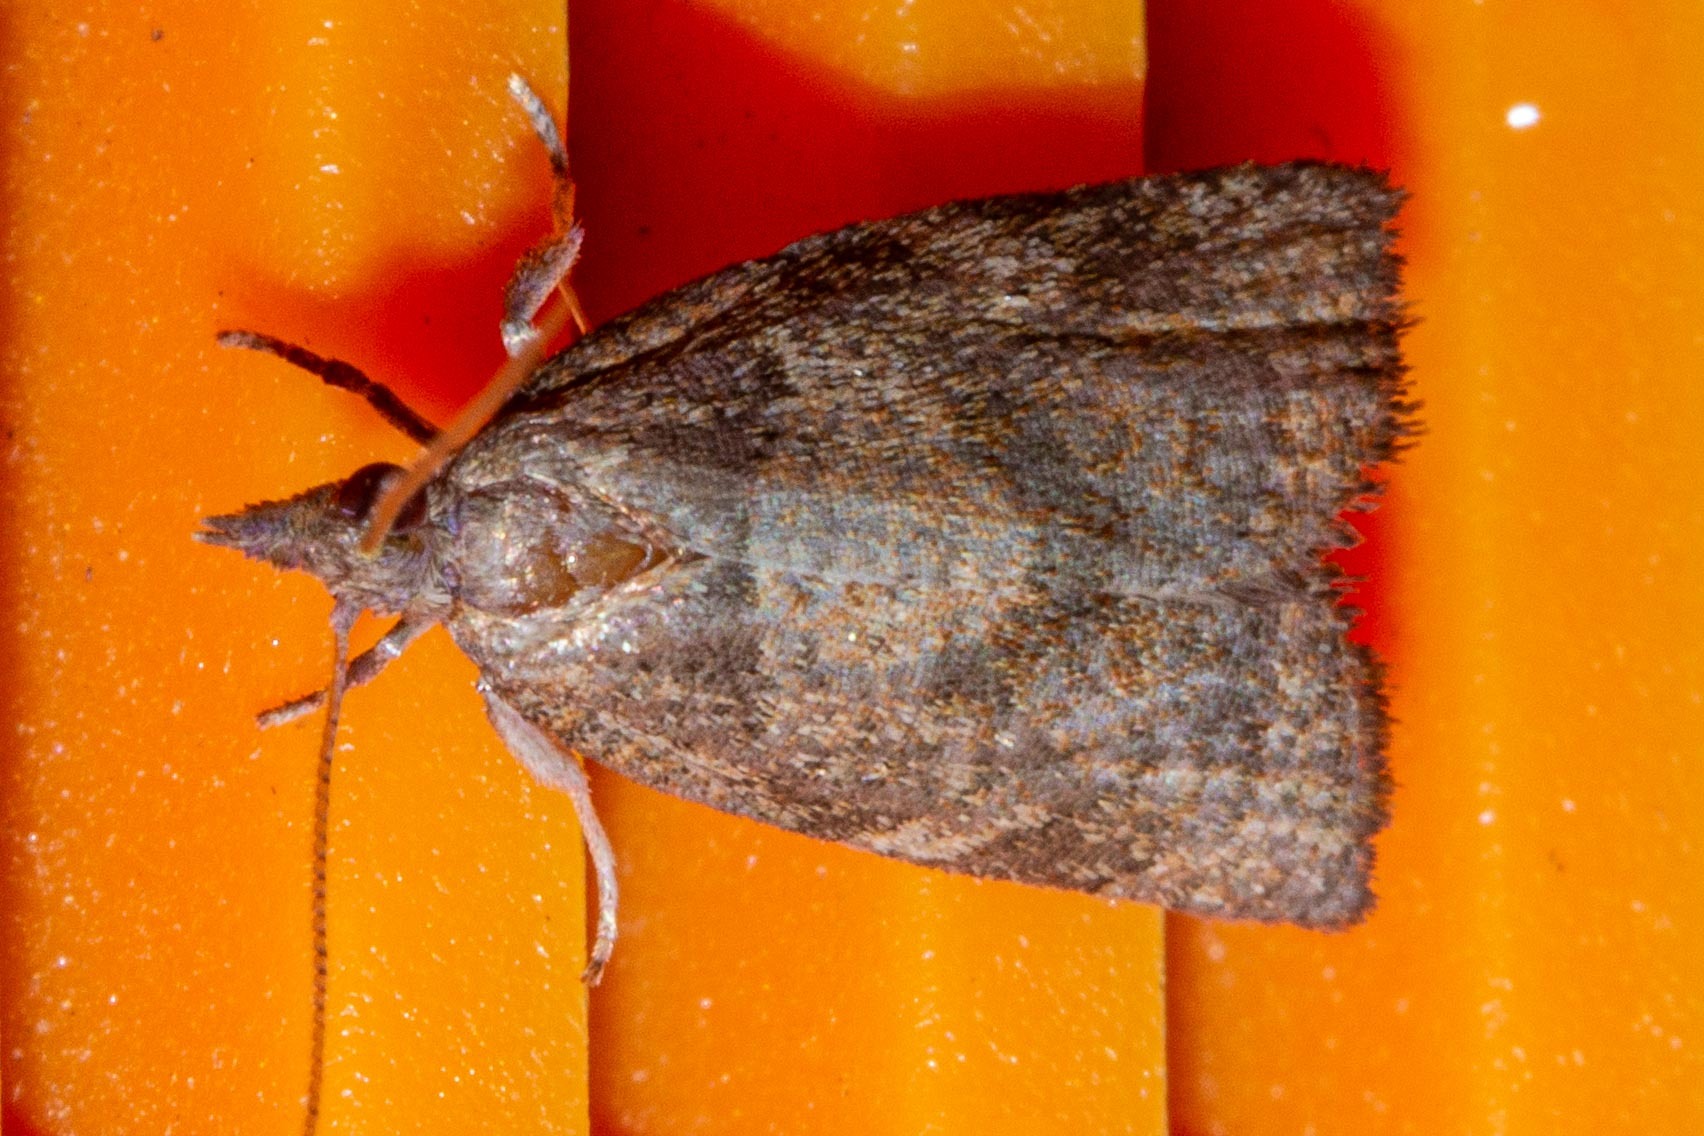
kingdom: Animalia
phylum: Arthropoda
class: Insecta
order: Lepidoptera
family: Tortricidae
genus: Catamacta
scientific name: Catamacta gavisana
